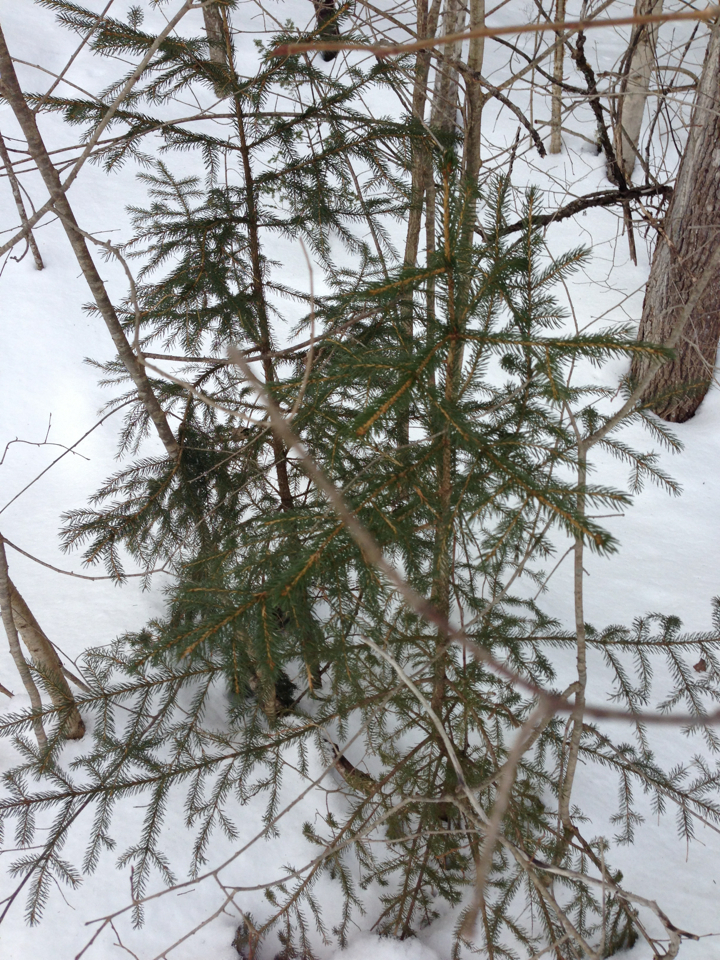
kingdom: Plantae
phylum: Tracheophyta
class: Pinopsida
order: Pinales
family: Pinaceae
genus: Picea
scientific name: Picea rubens
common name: Red spruce
